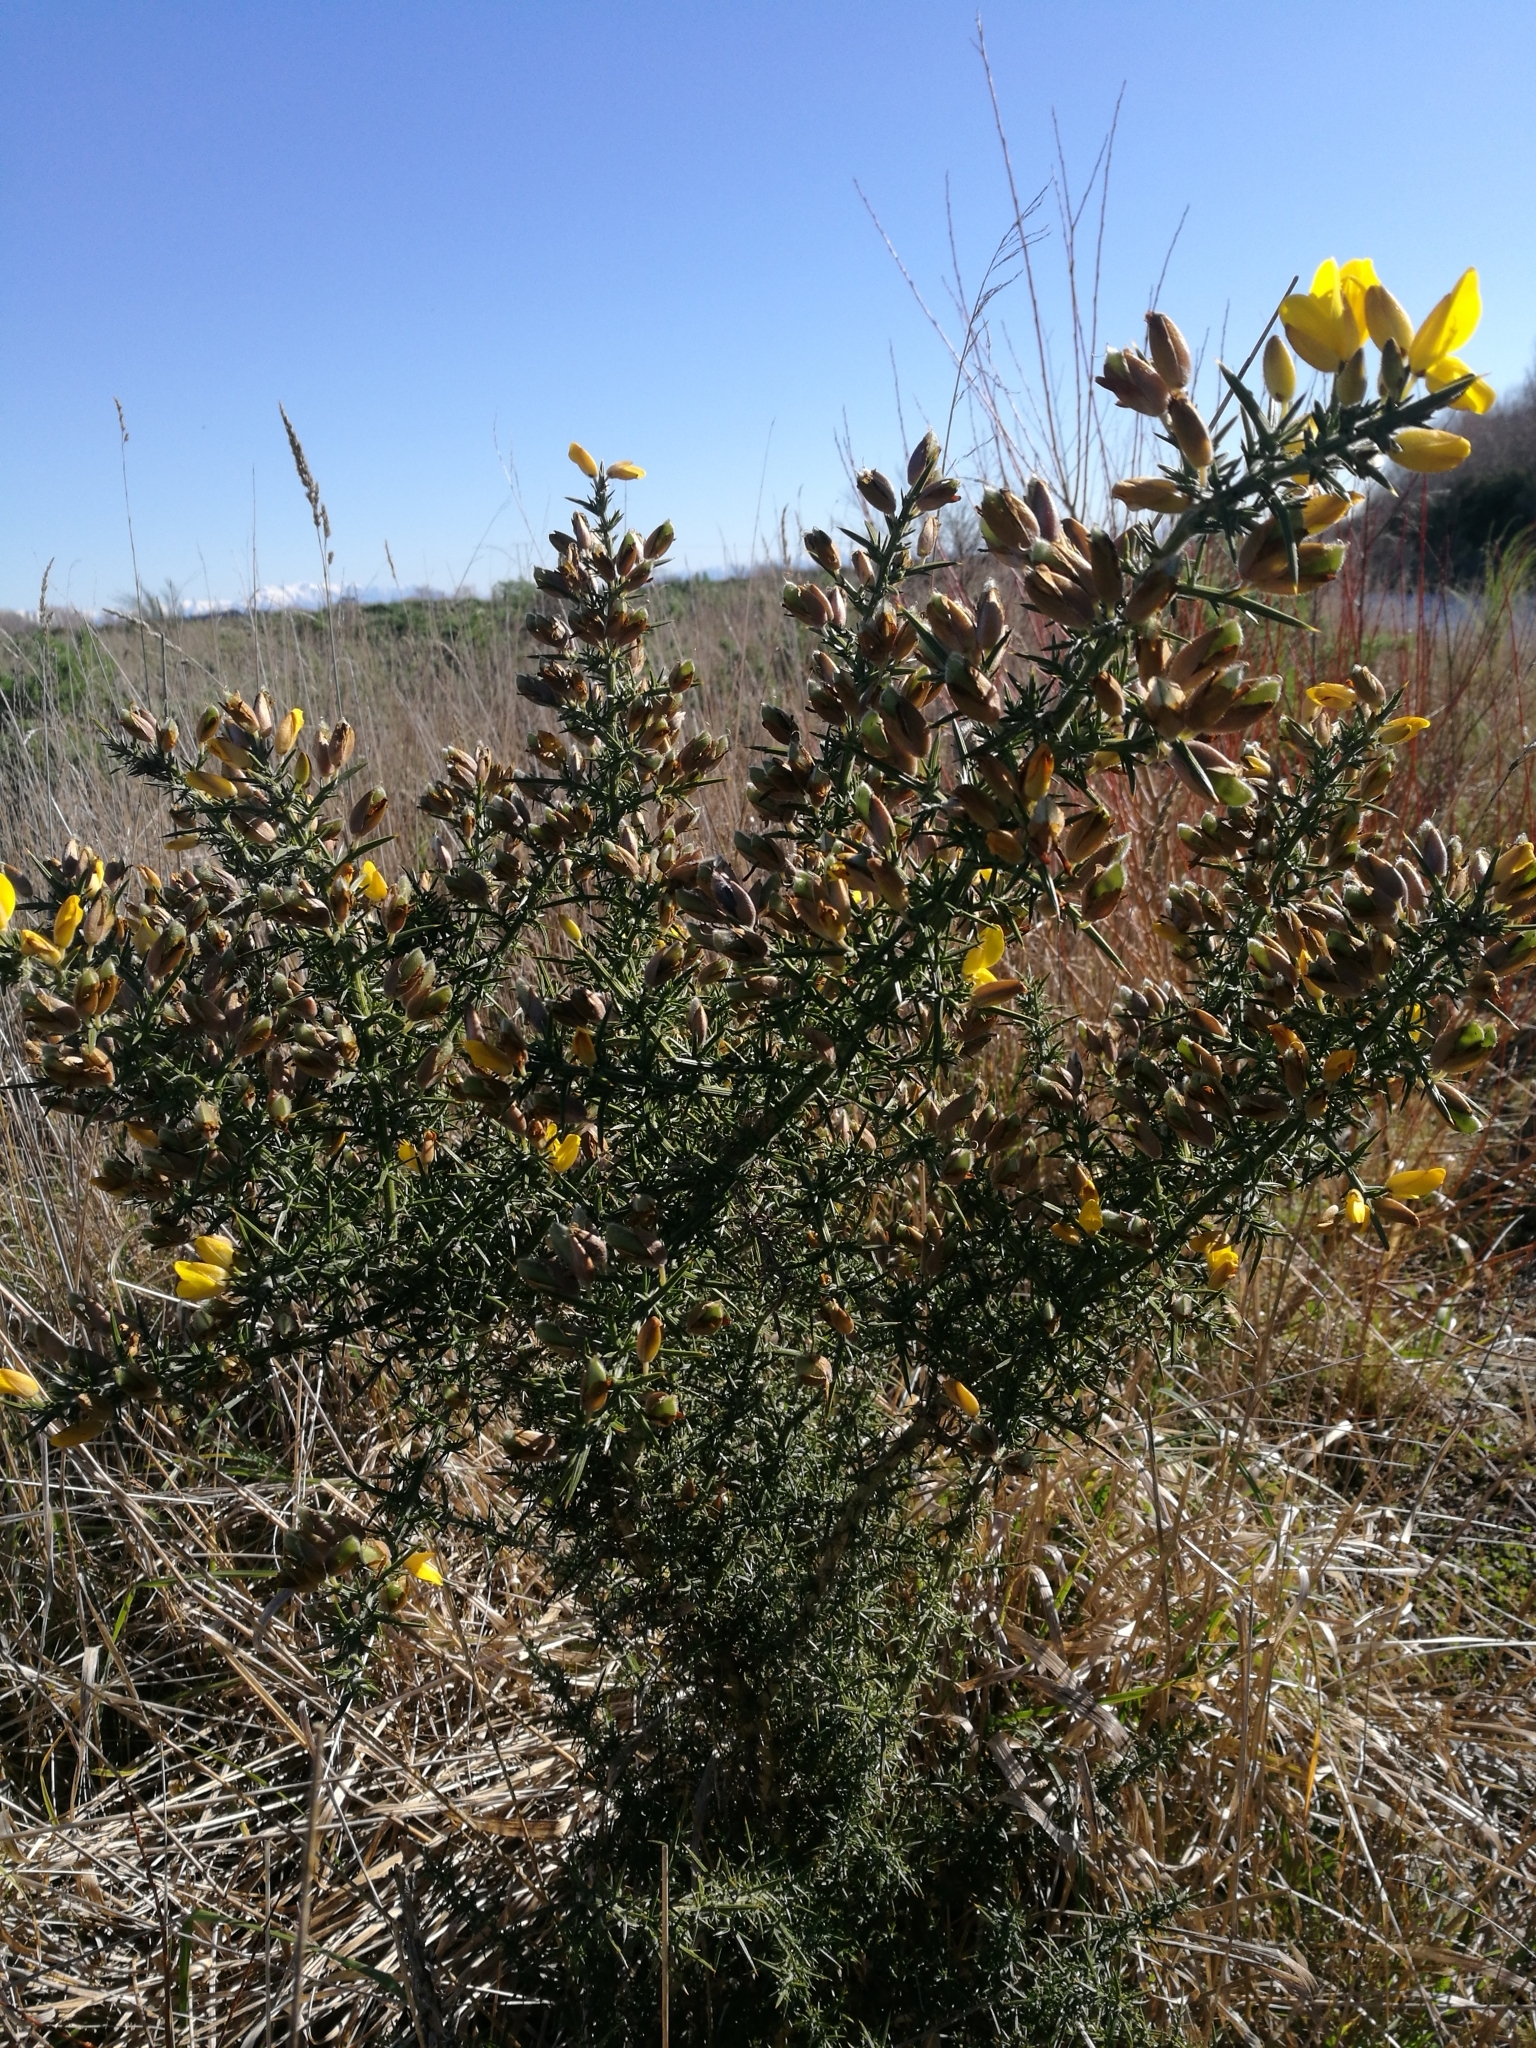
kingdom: Plantae
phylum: Tracheophyta
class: Magnoliopsida
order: Fabales
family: Fabaceae
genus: Ulex
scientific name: Ulex europaeus
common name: Common gorse
